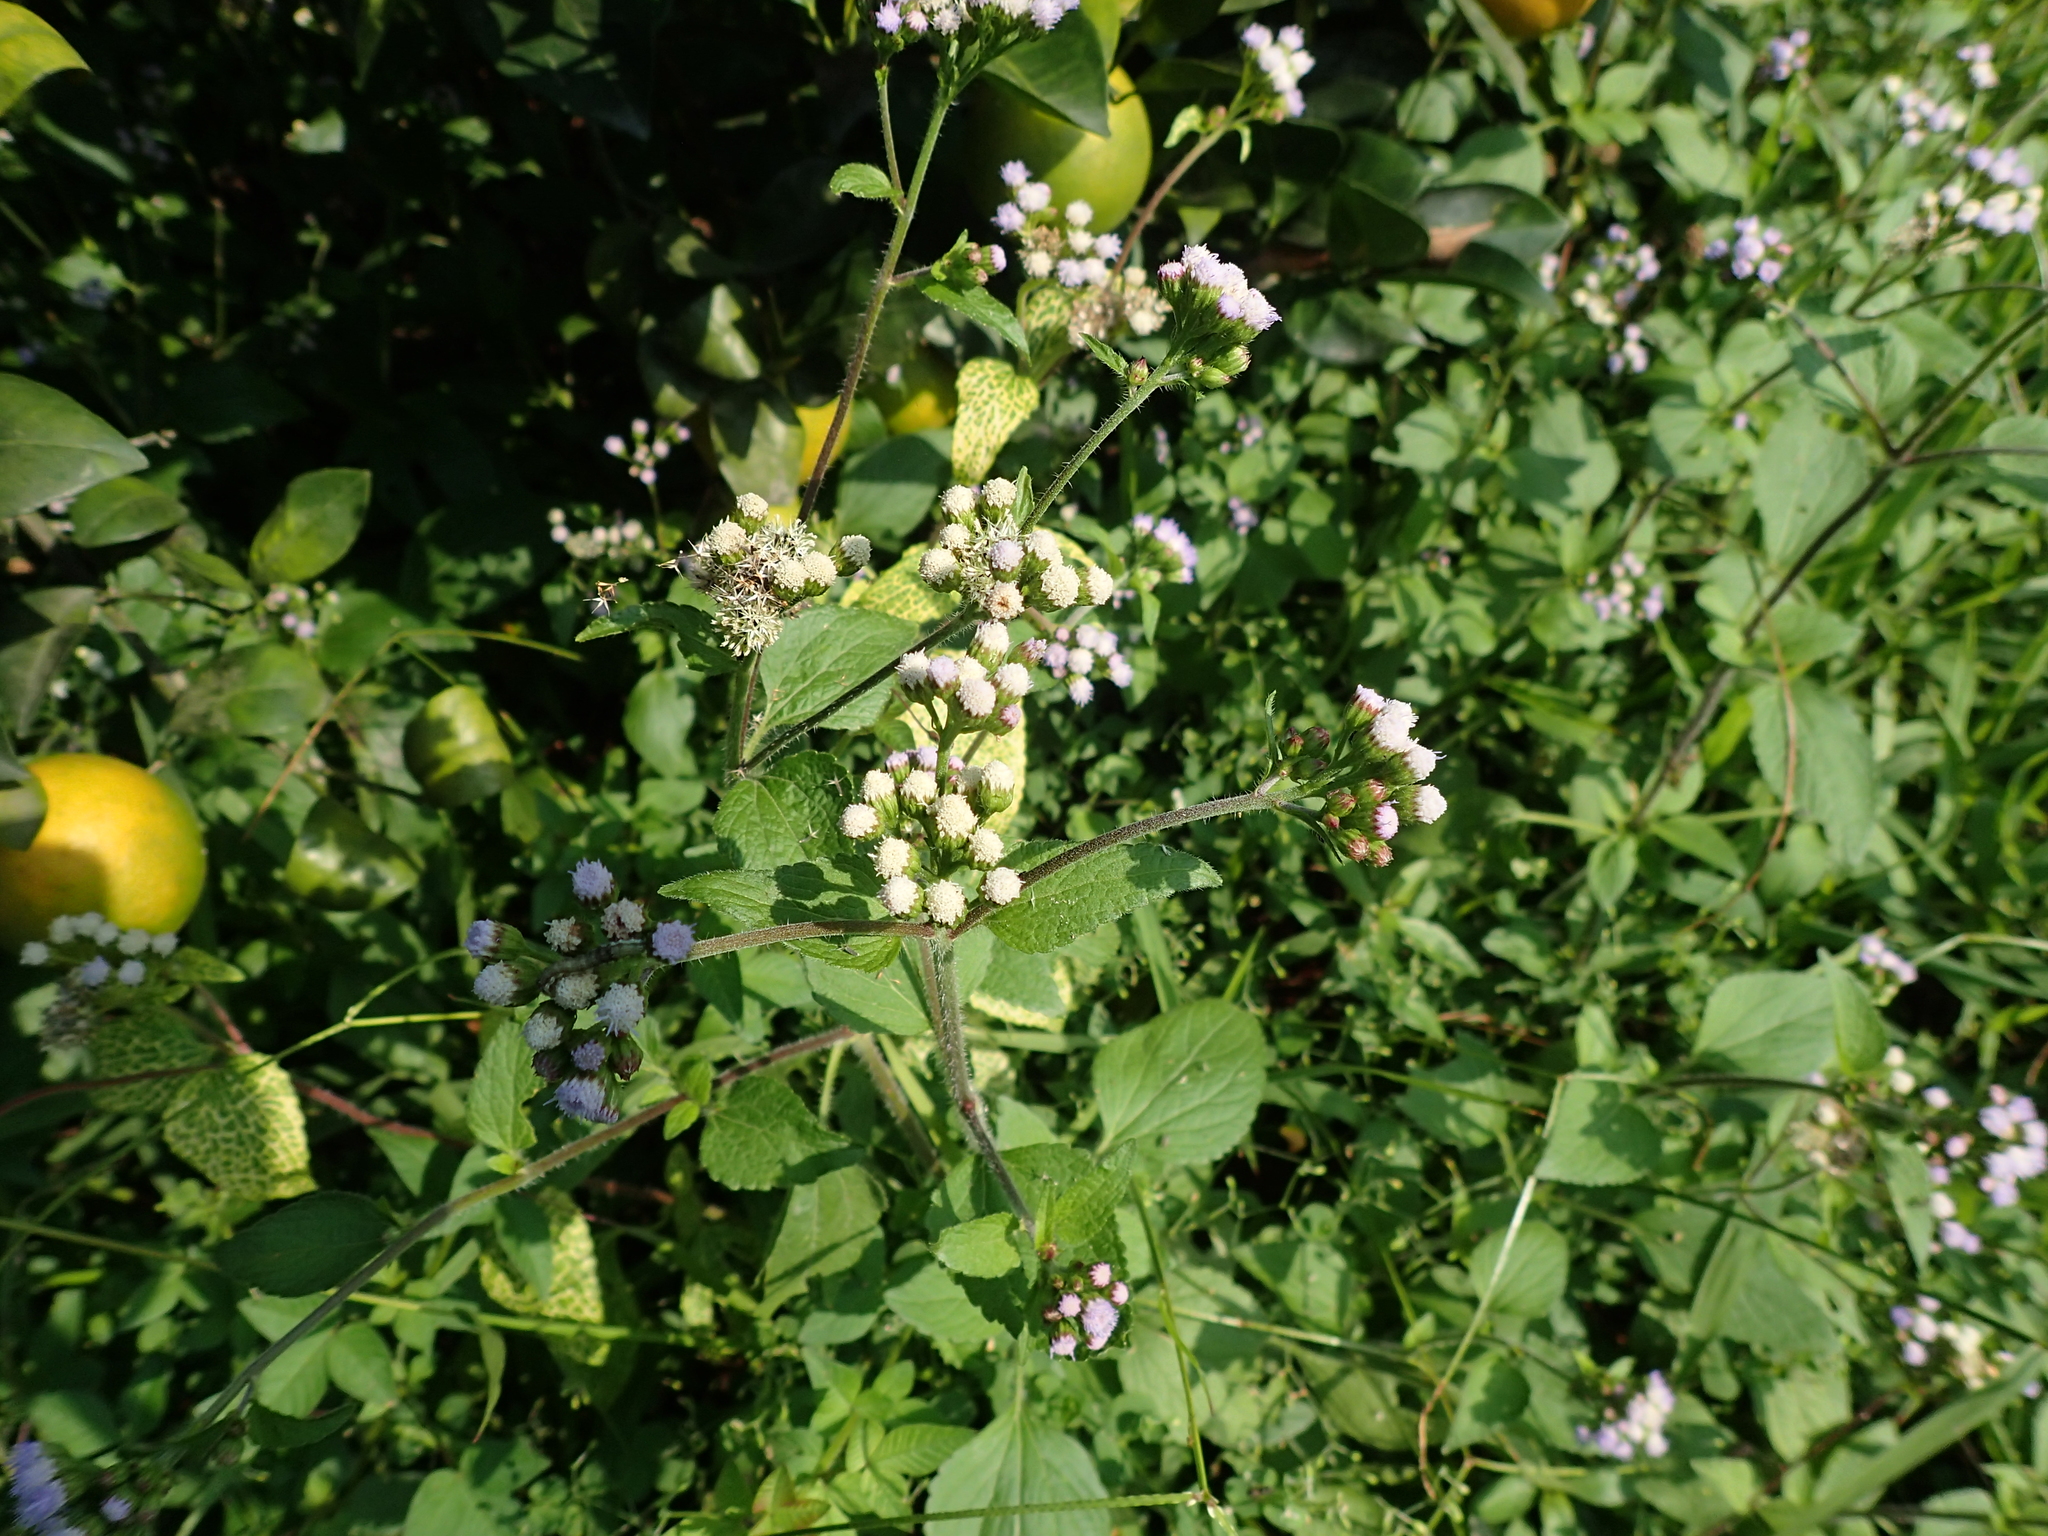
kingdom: Plantae
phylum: Tracheophyta
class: Magnoliopsida
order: Asterales
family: Asteraceae
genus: Ageratum
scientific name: Ageratum conyzoides
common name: Tropical whiteweed
